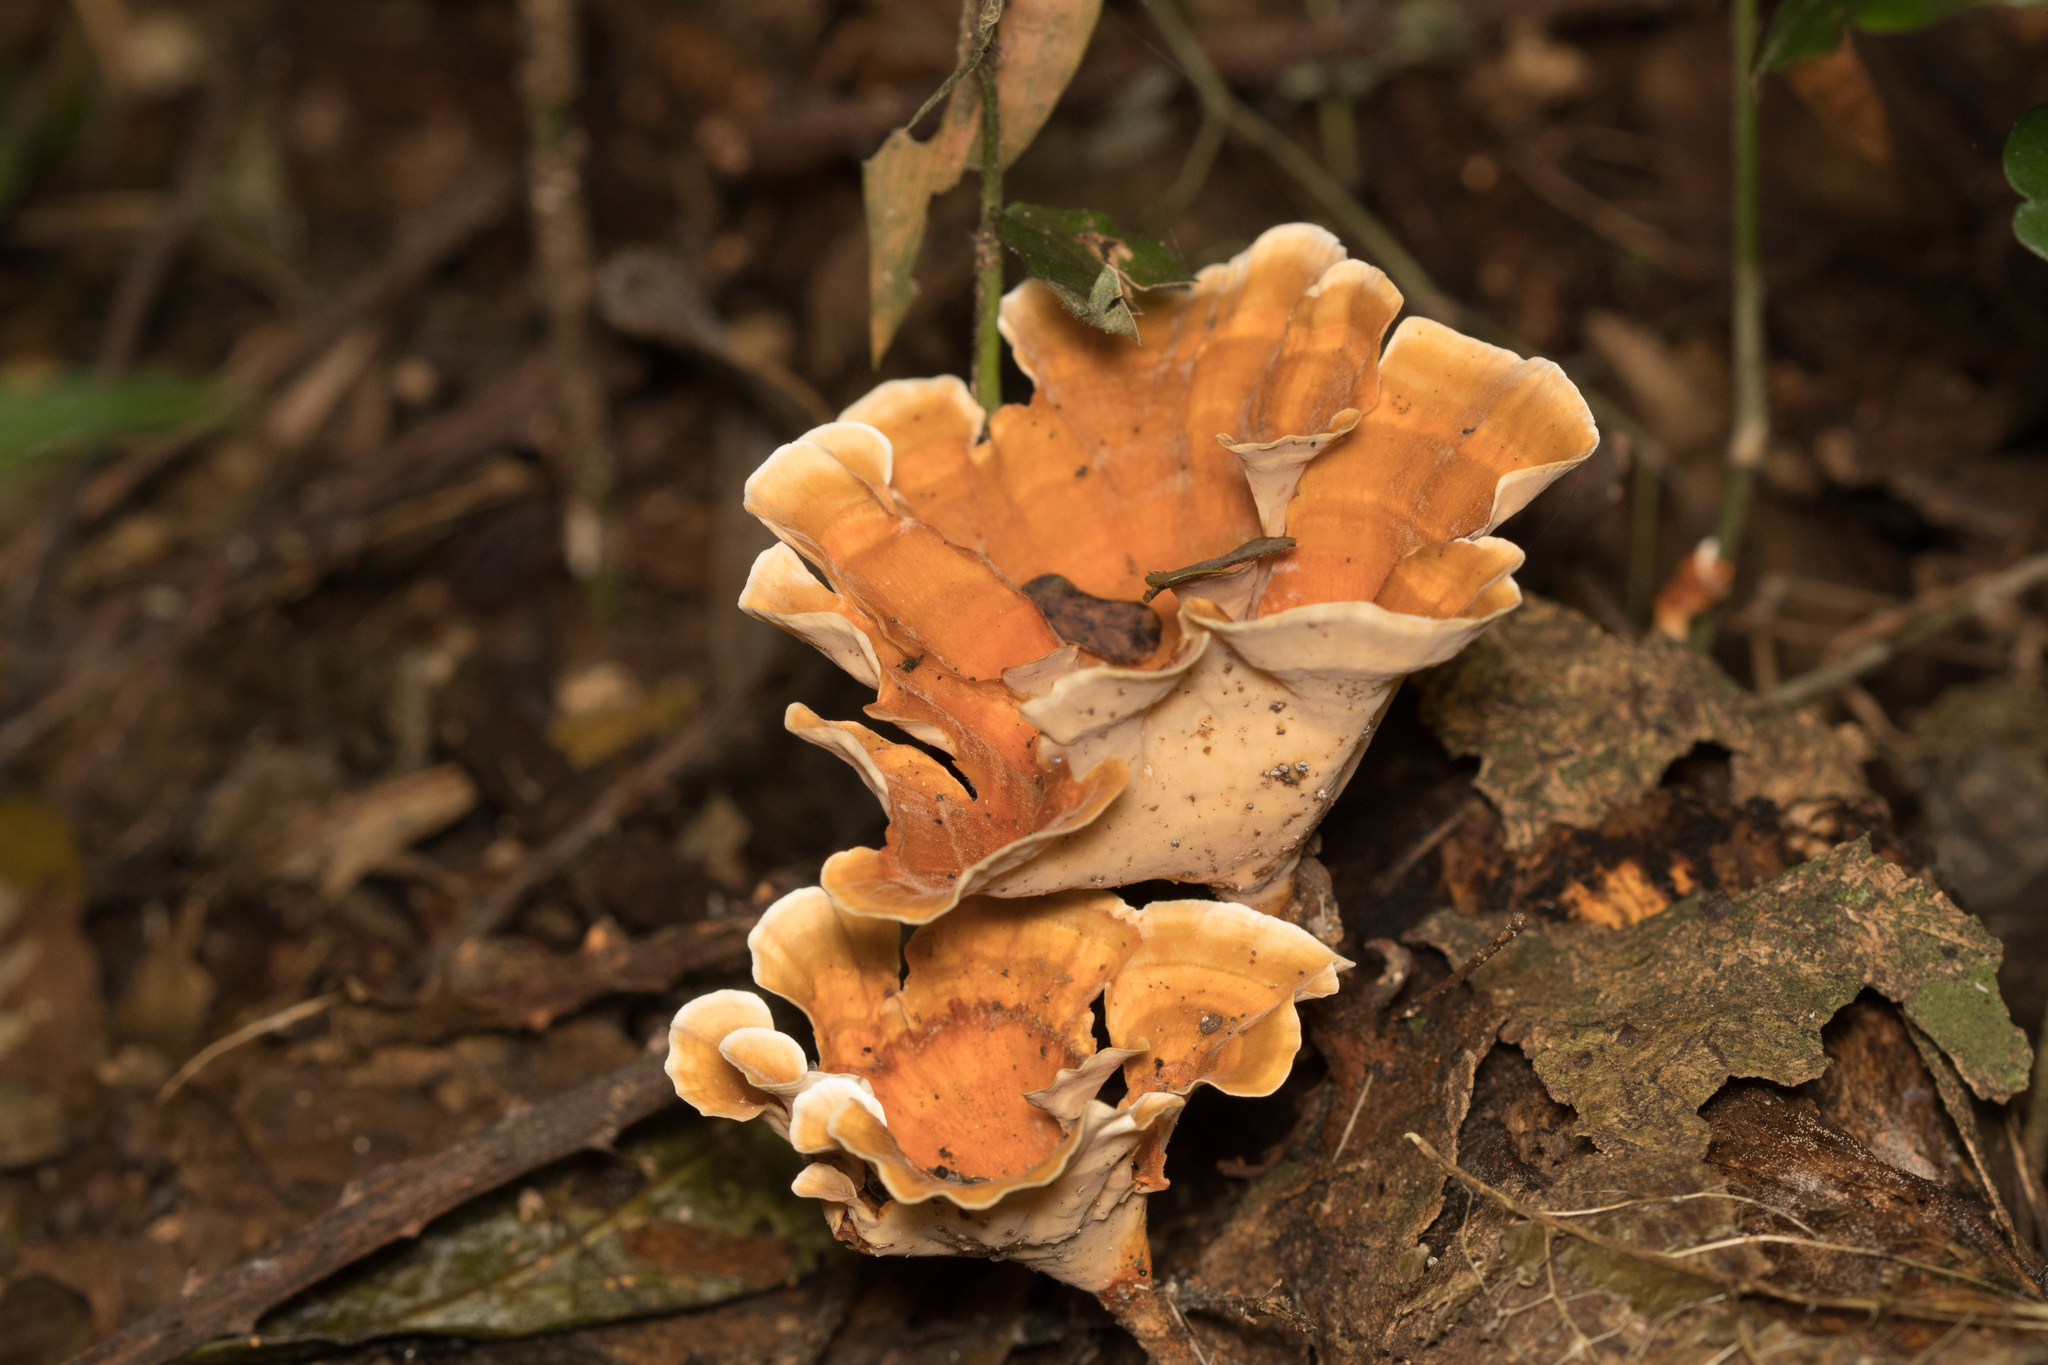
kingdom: Fungi
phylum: Basidiomycota
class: Agaricomycetes
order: Polyporales
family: Polyporaceae
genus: Microporus
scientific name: Microporus xanthopus
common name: Yellow-stemmed micropore
